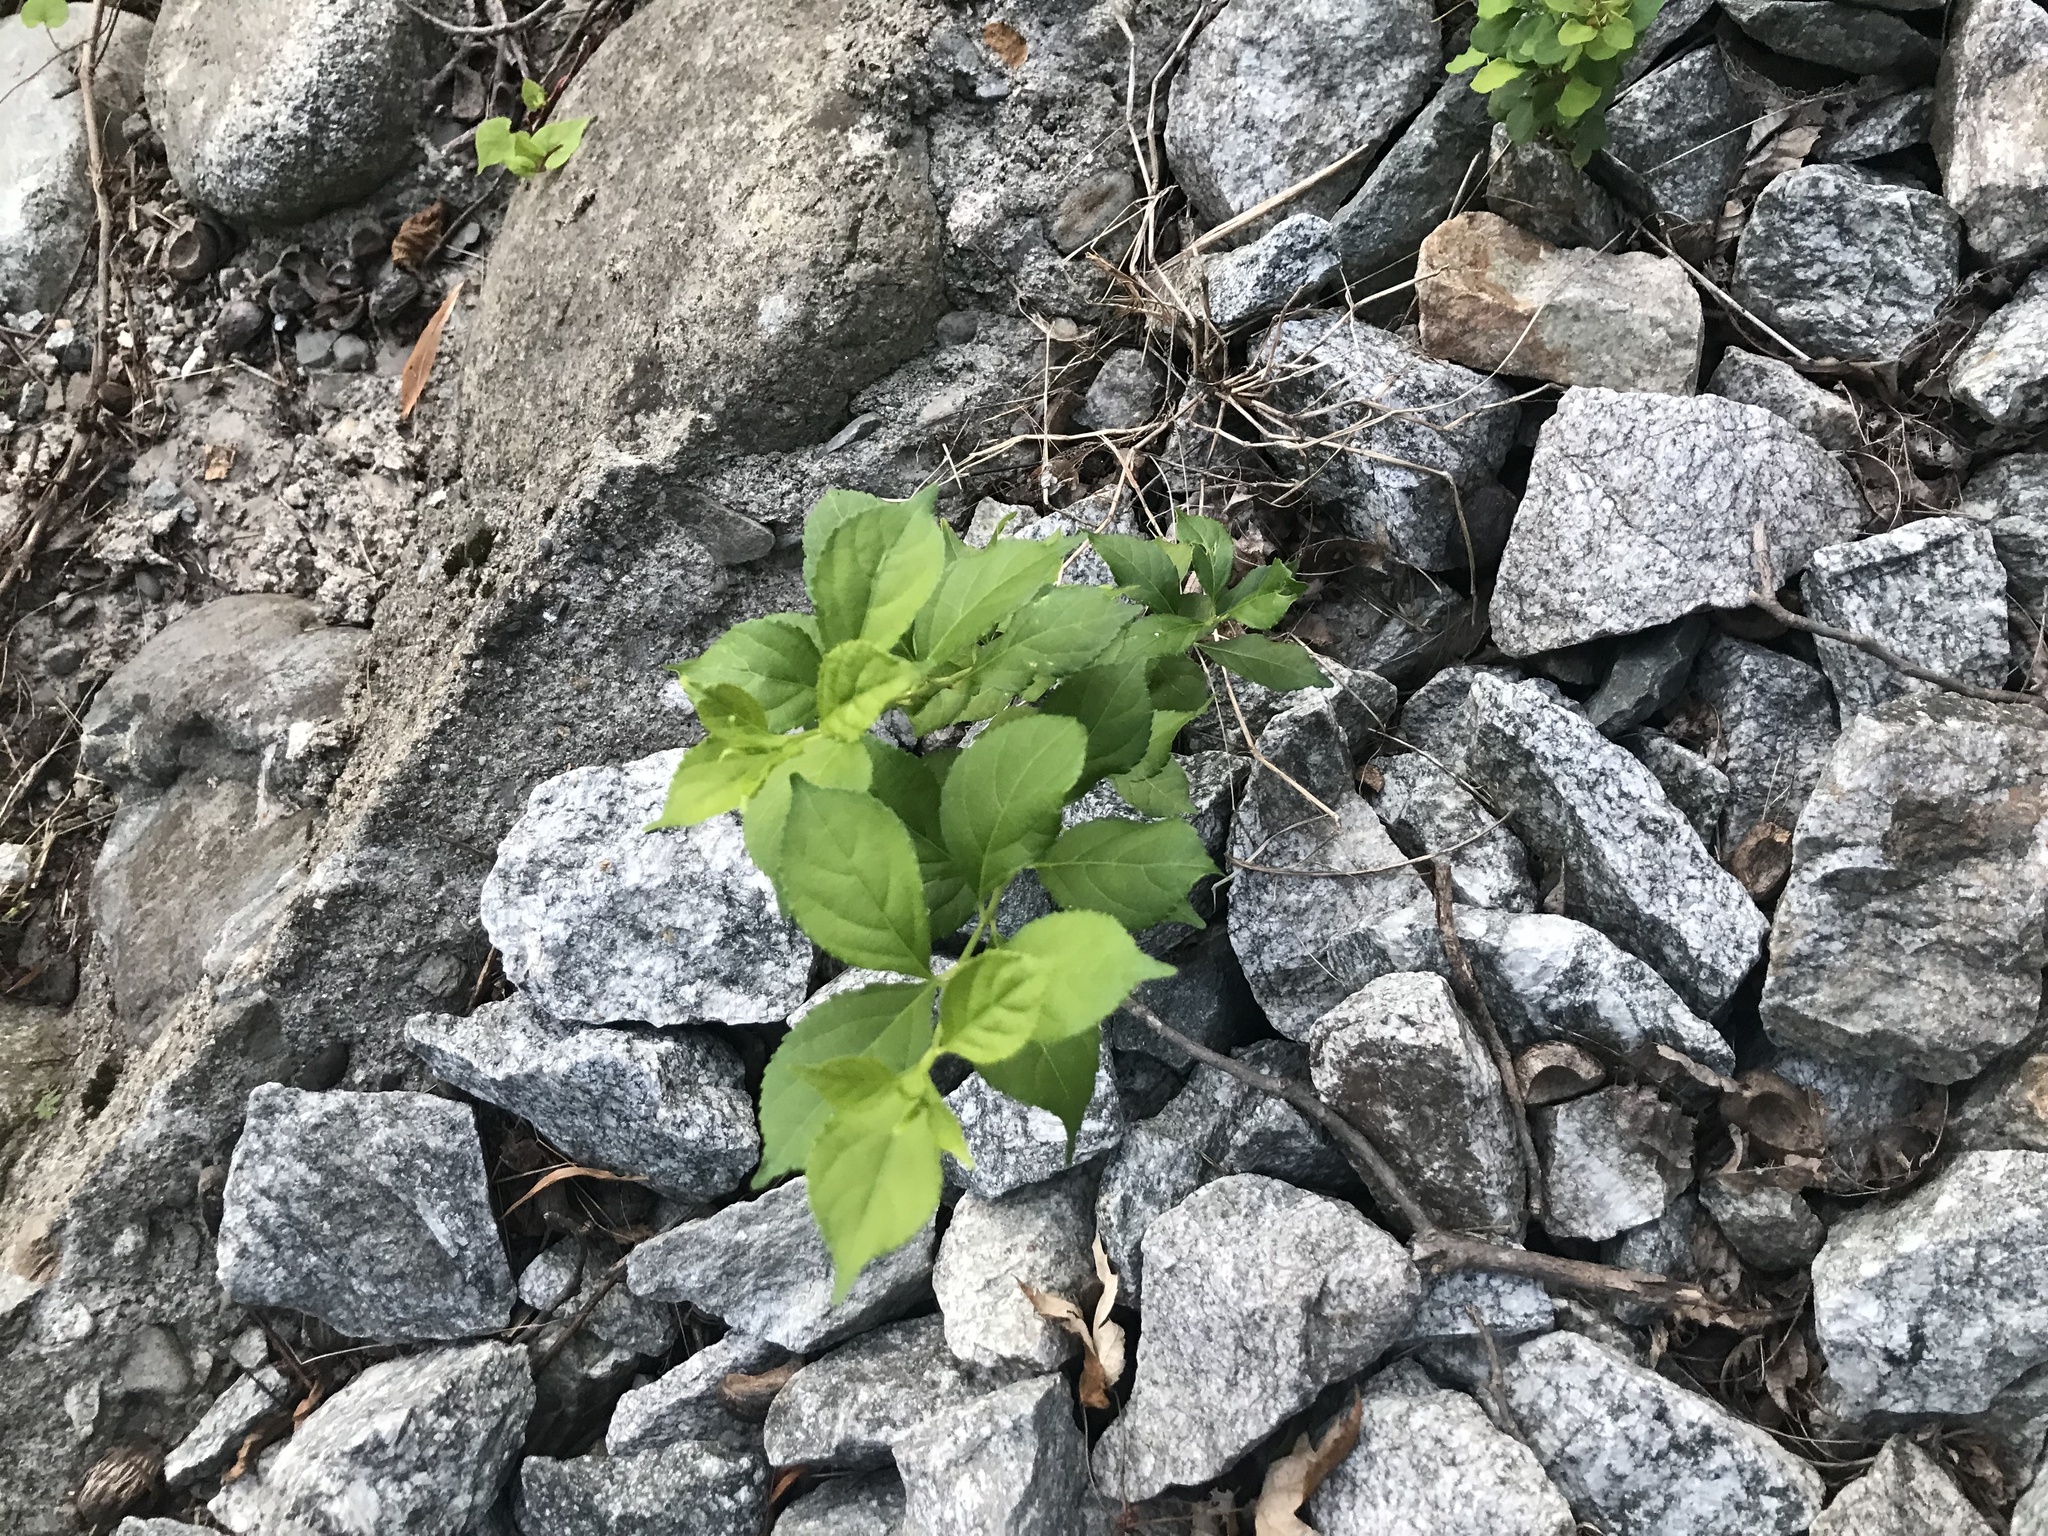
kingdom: Plantae
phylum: Tracheophyta
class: Magnoliopsida
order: Celastrales
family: Celastraceae
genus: Celastrus
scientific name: Celastrus orbiculatus
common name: Oriental bittersweet
